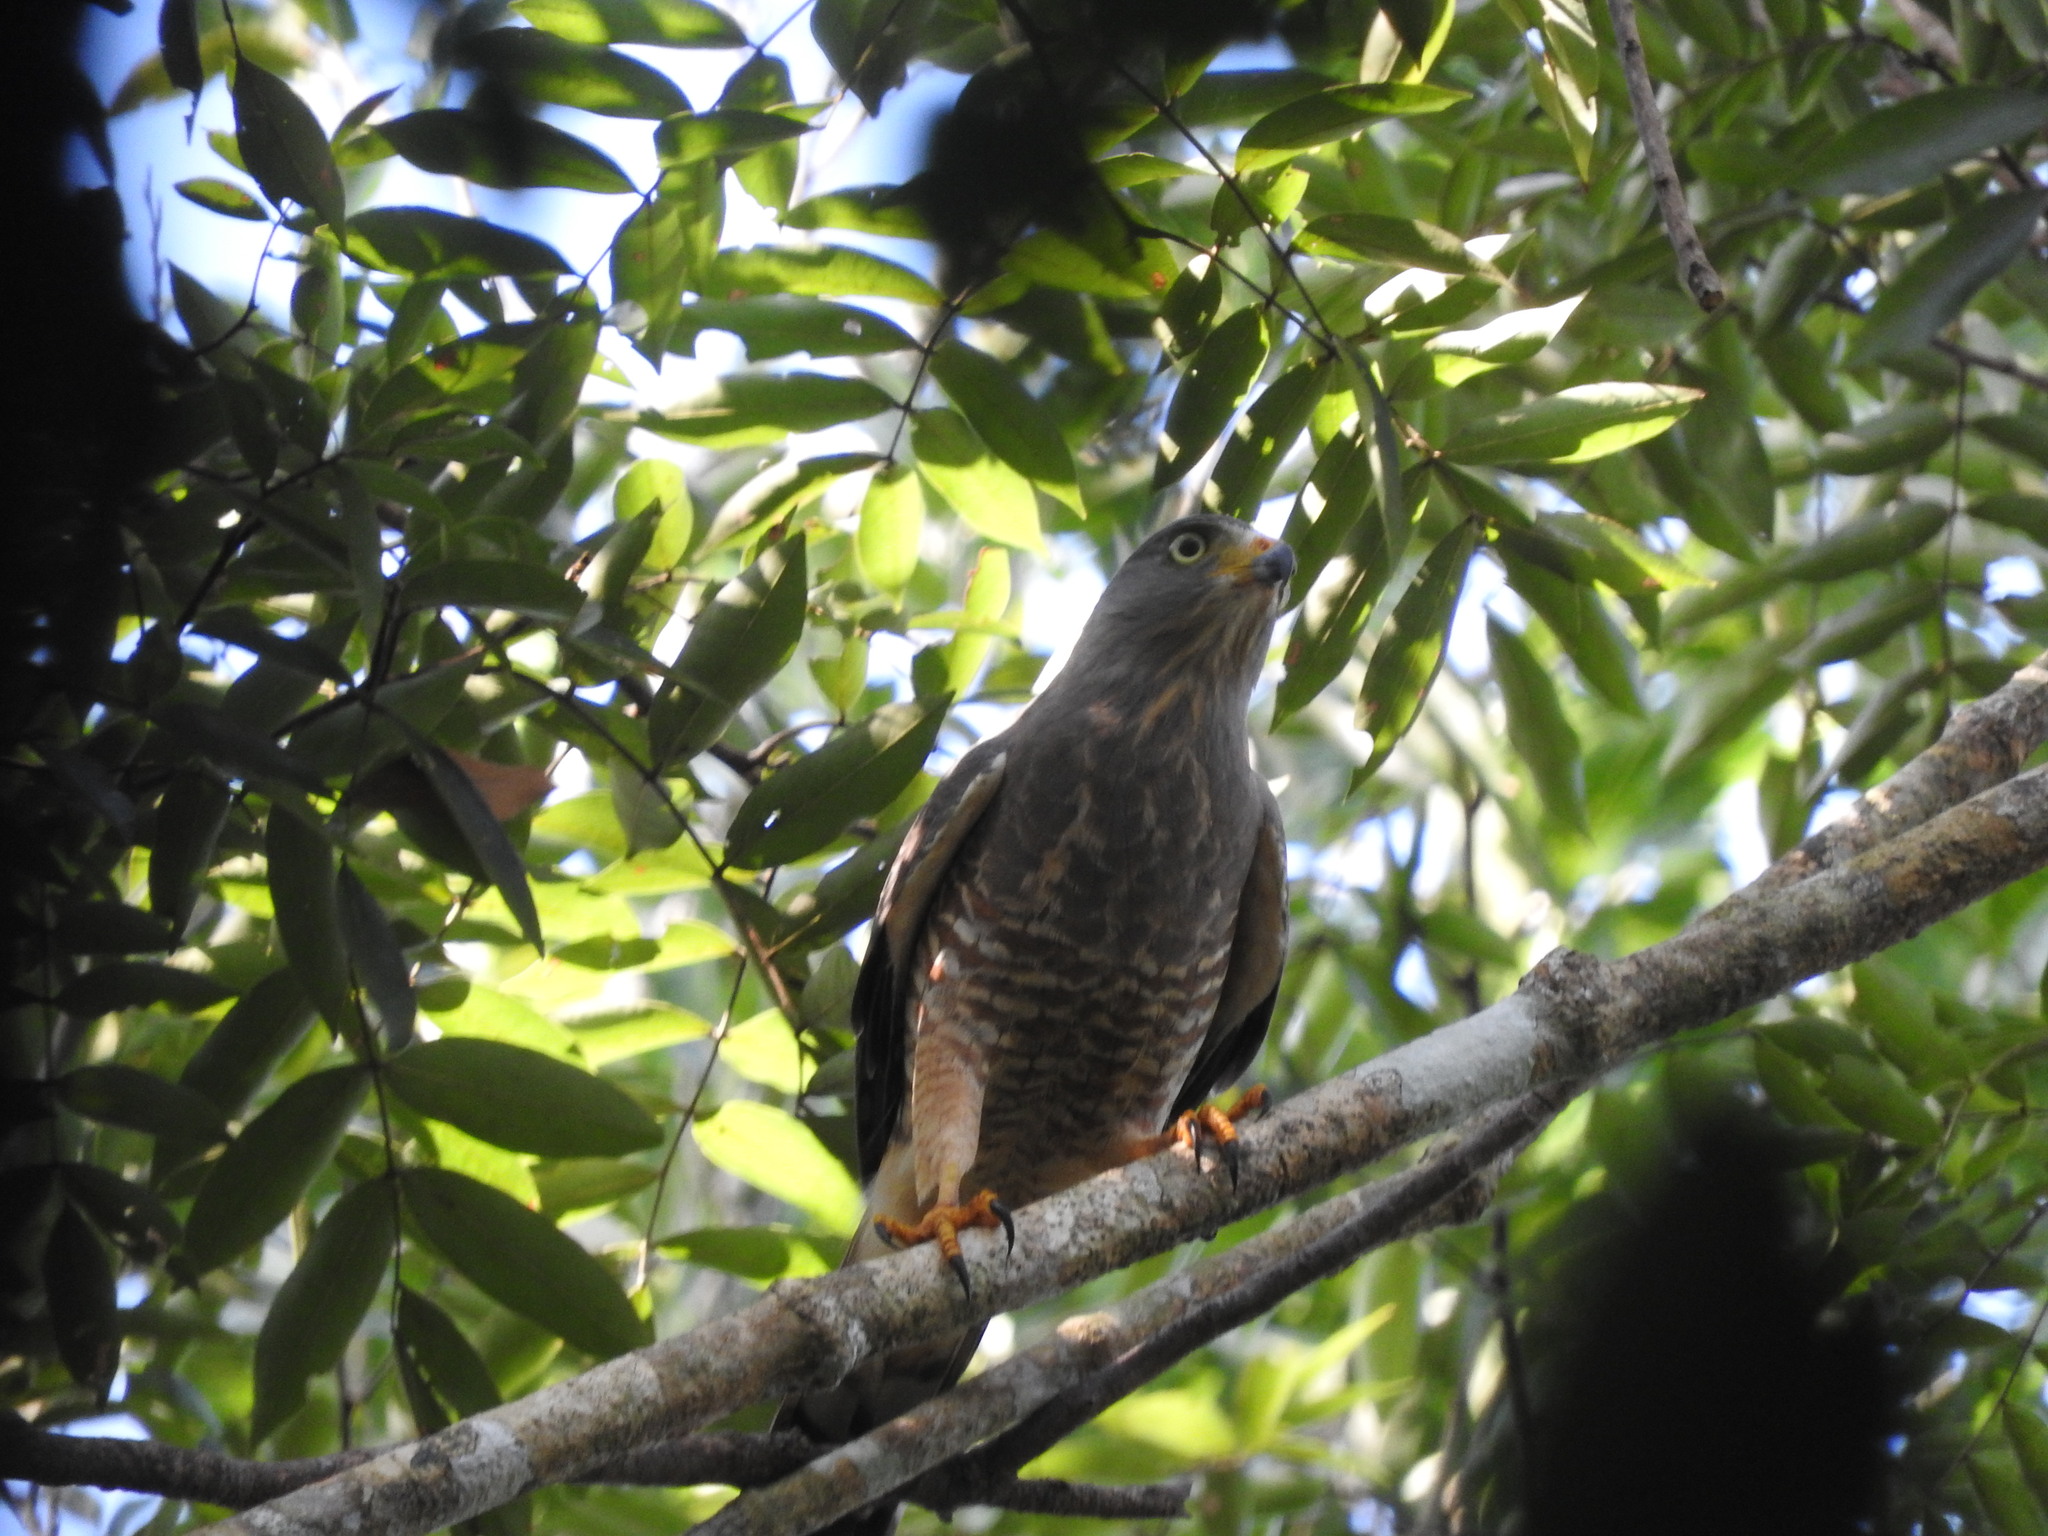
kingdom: Animalia
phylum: Chordata
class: Aves
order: Accipitriformes
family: Accipitridae
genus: Rupornis
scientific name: Rupornis magnirostris
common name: Roadside hawk
